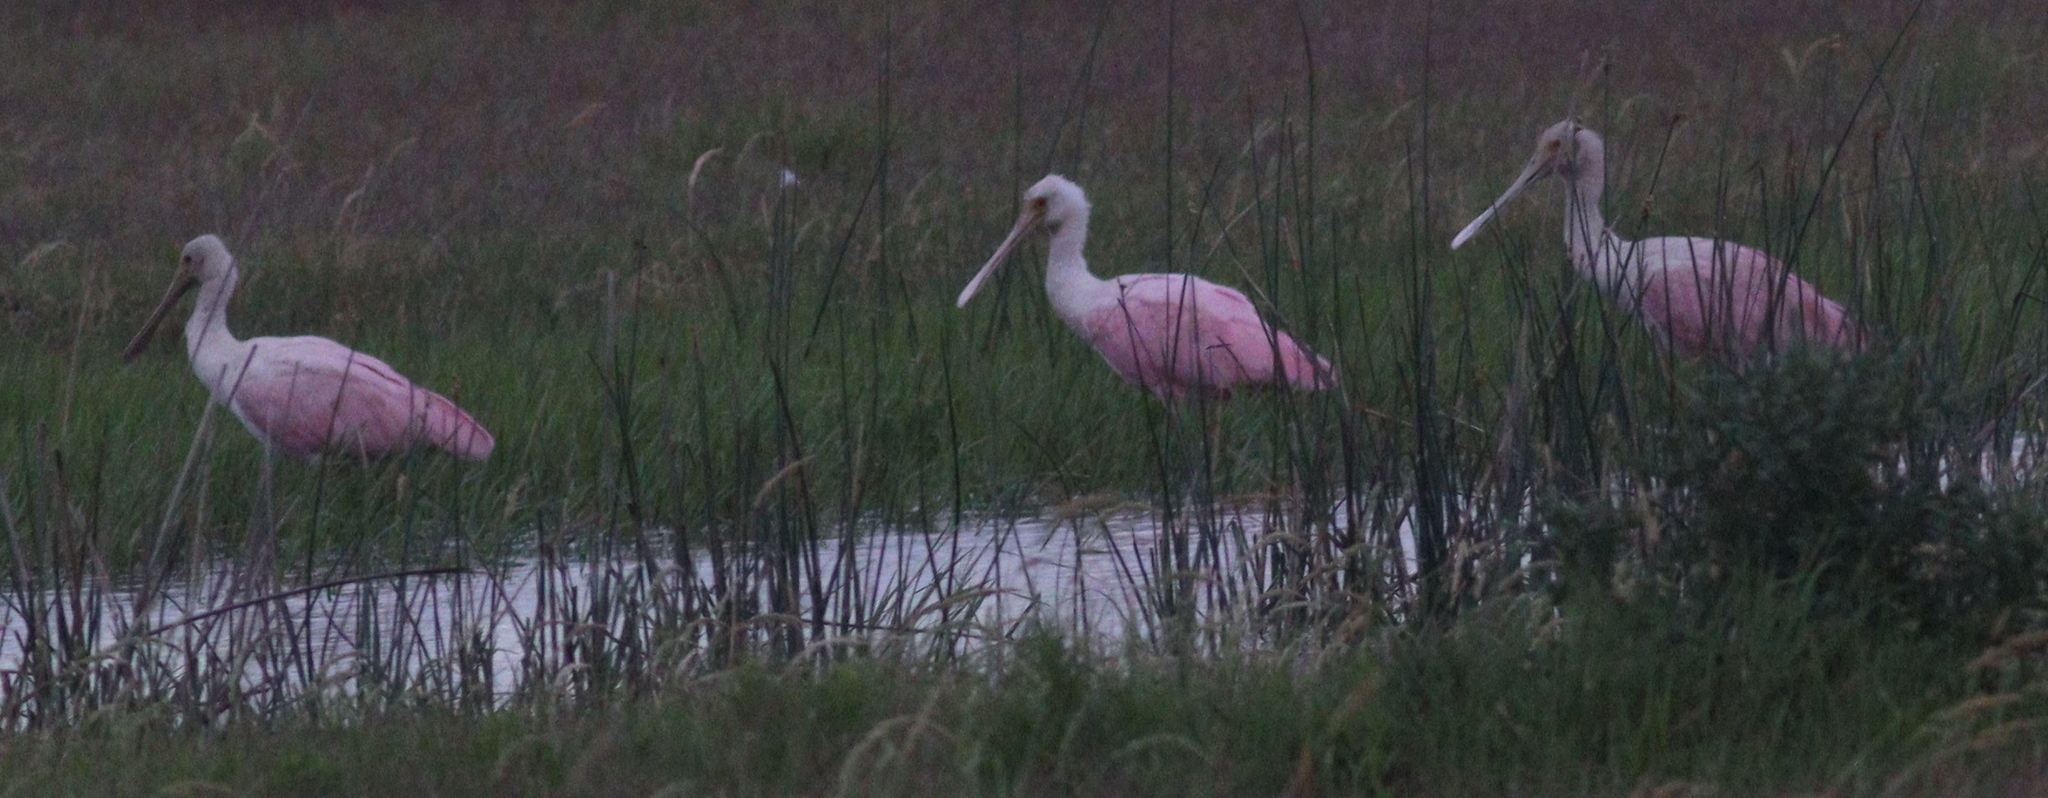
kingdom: Animalia
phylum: Chordata
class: Aves
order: Pelecaniformes
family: Threskiornithidae
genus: Platalea
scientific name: Platalea ajaja
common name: Roseate spoonbill
